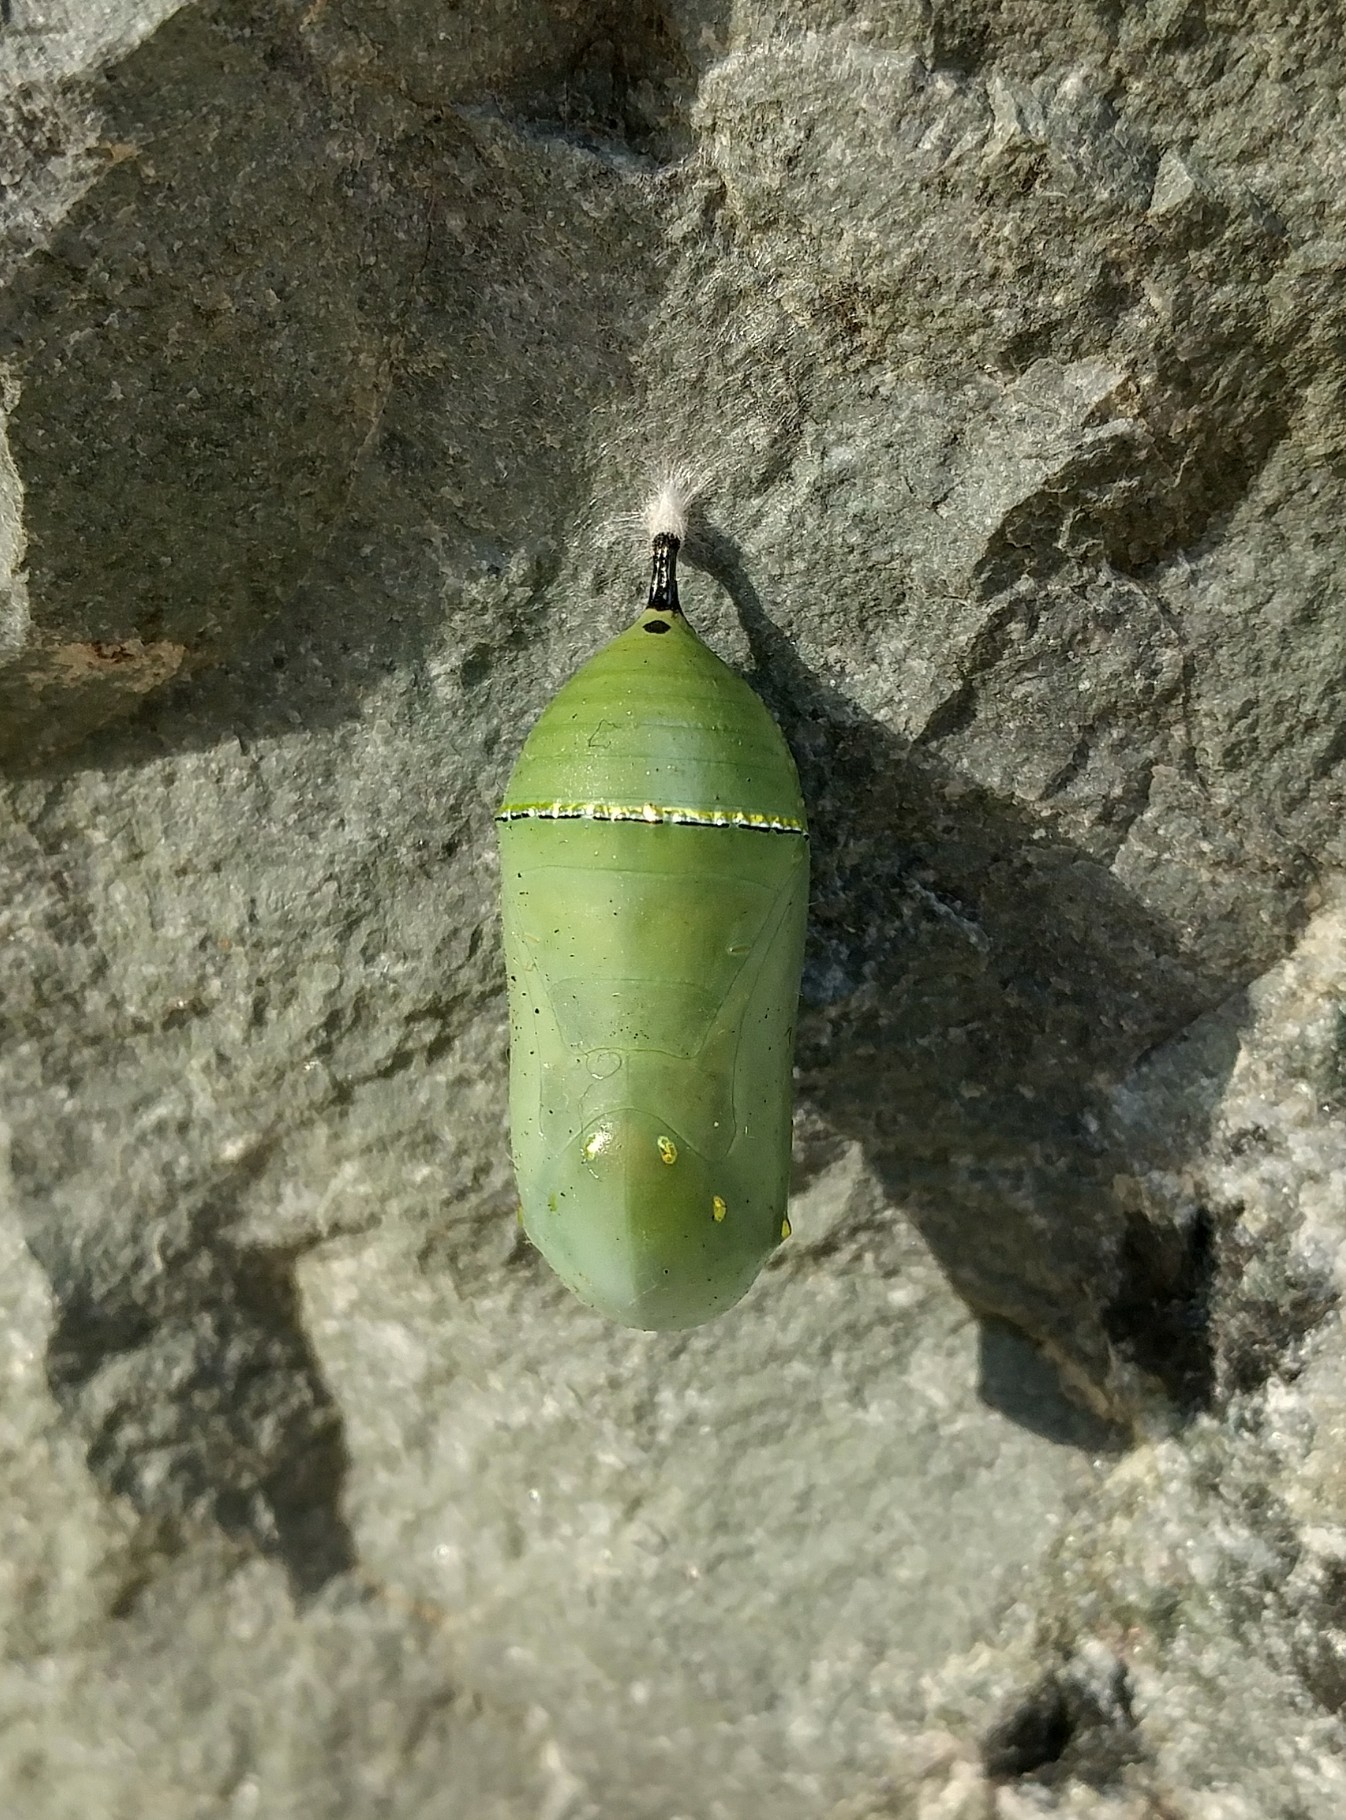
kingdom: Animalia
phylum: Arthropoda
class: Insecta
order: Lepidoptera
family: Nymphalidae
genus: Danaus
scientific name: Danaus plexippus
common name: Monarch
